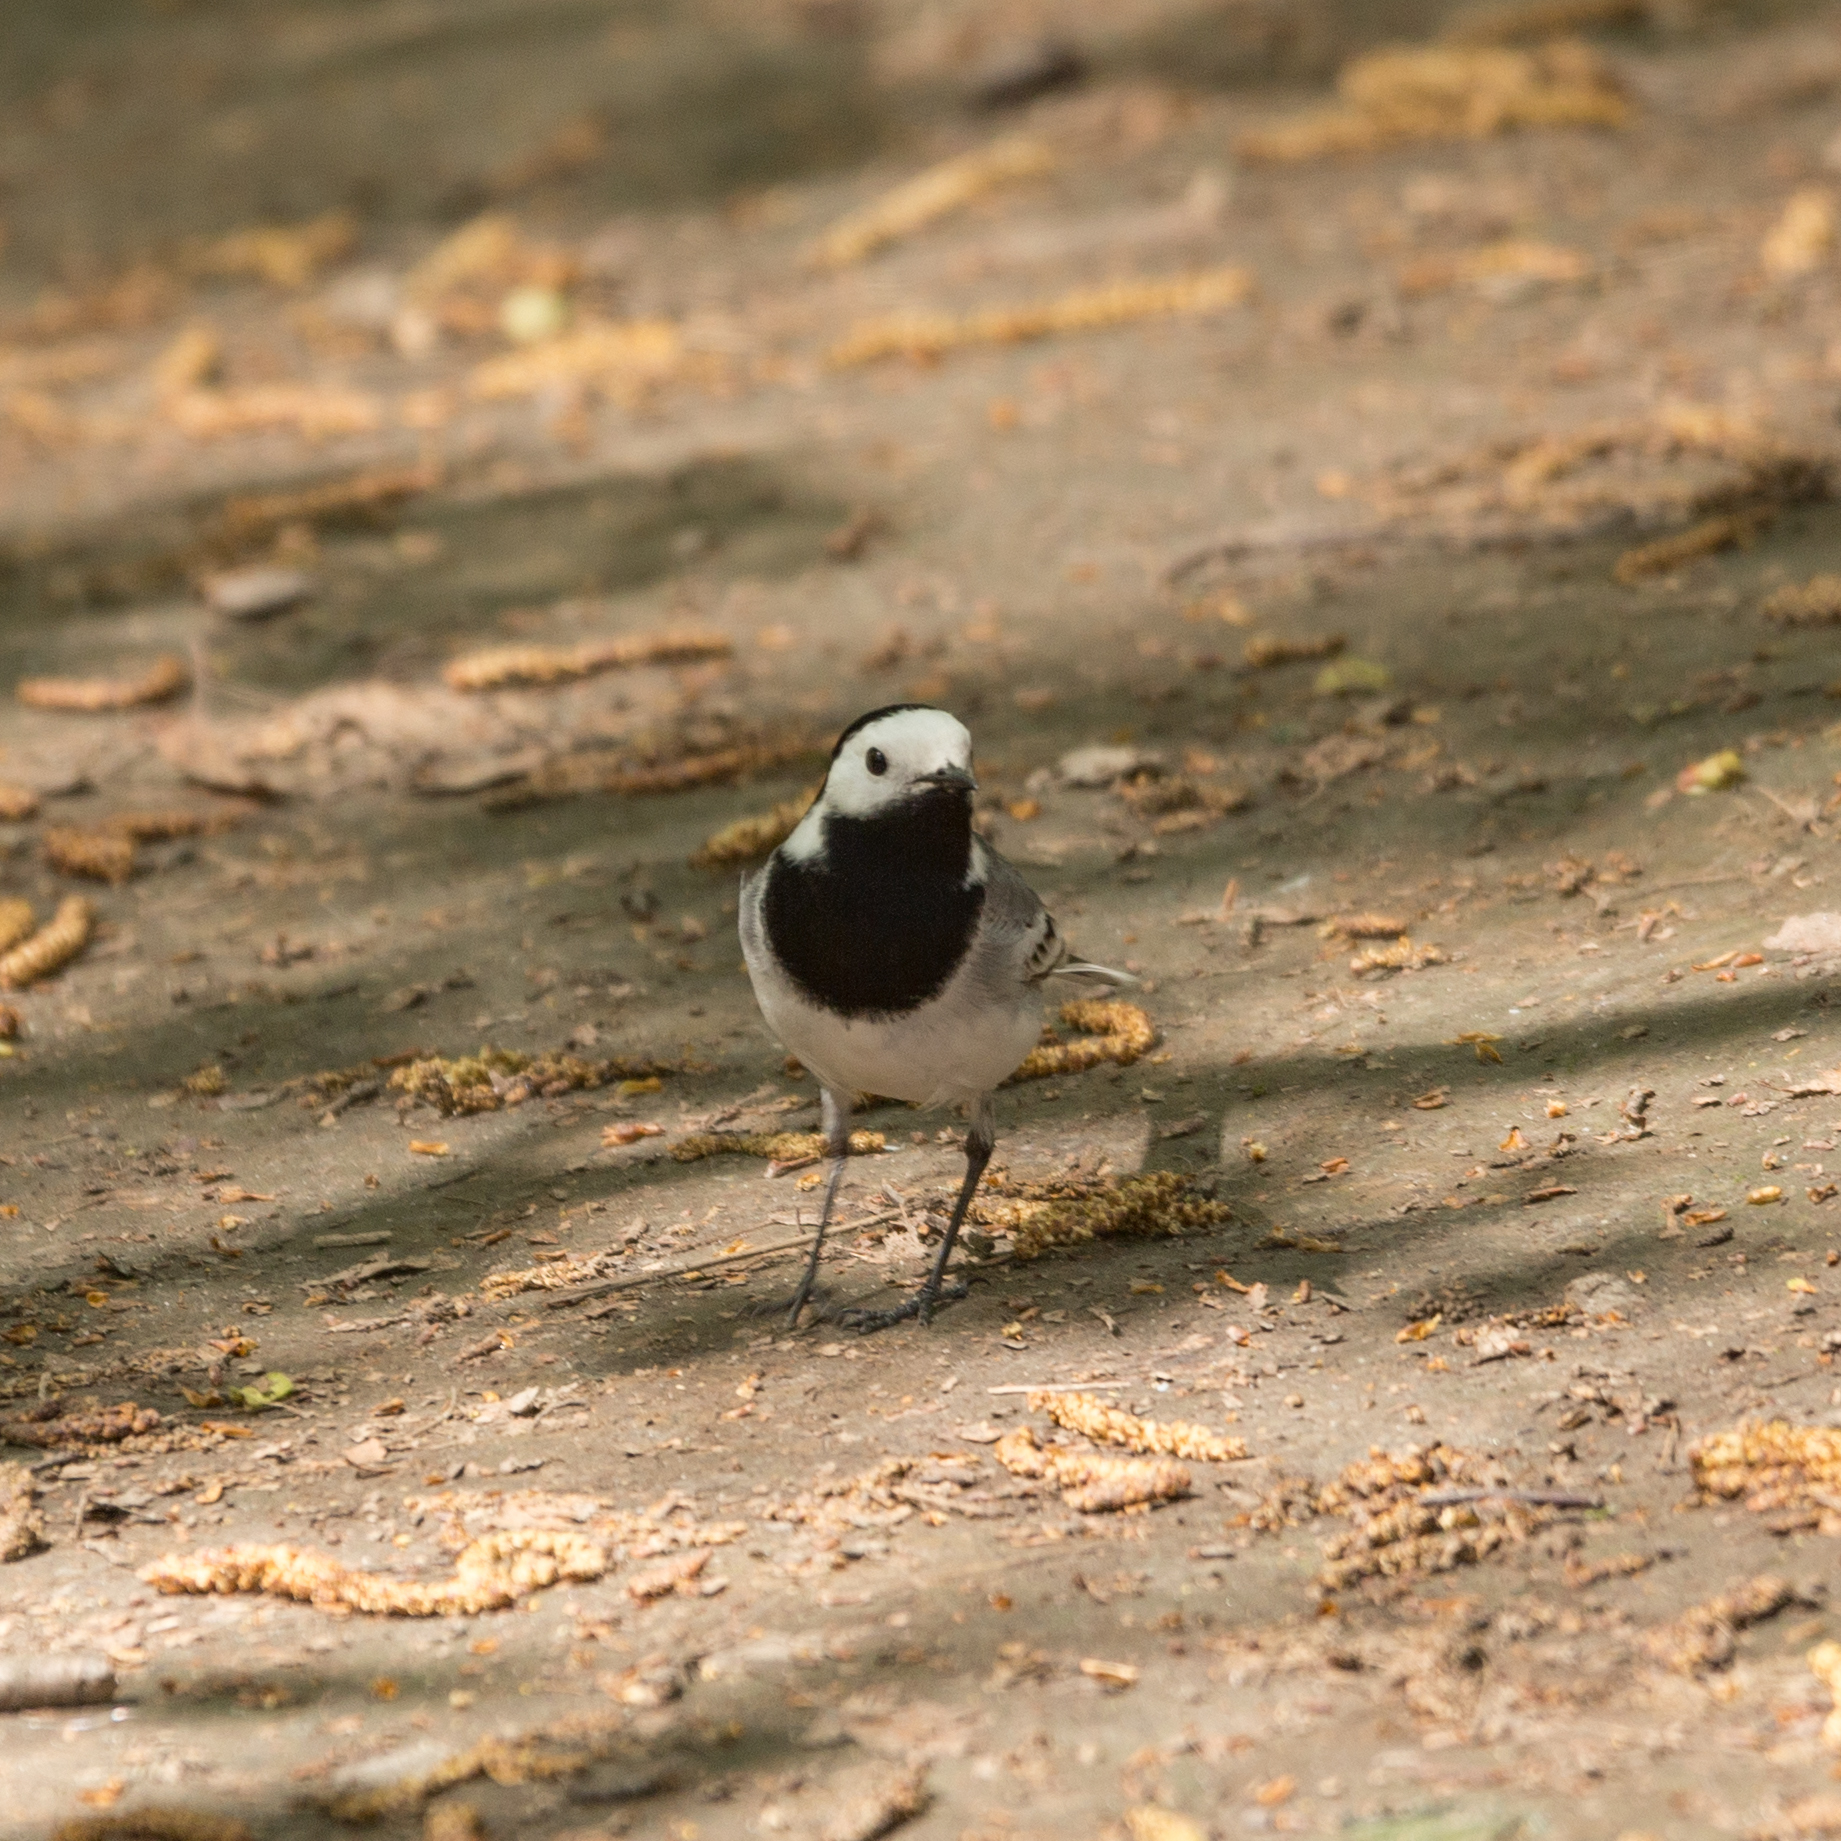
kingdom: Animalia
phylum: Chordata
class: Aves
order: Passeriformes
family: Motacillidae
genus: Motacilla
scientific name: Motacilla alba
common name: White wagtail
